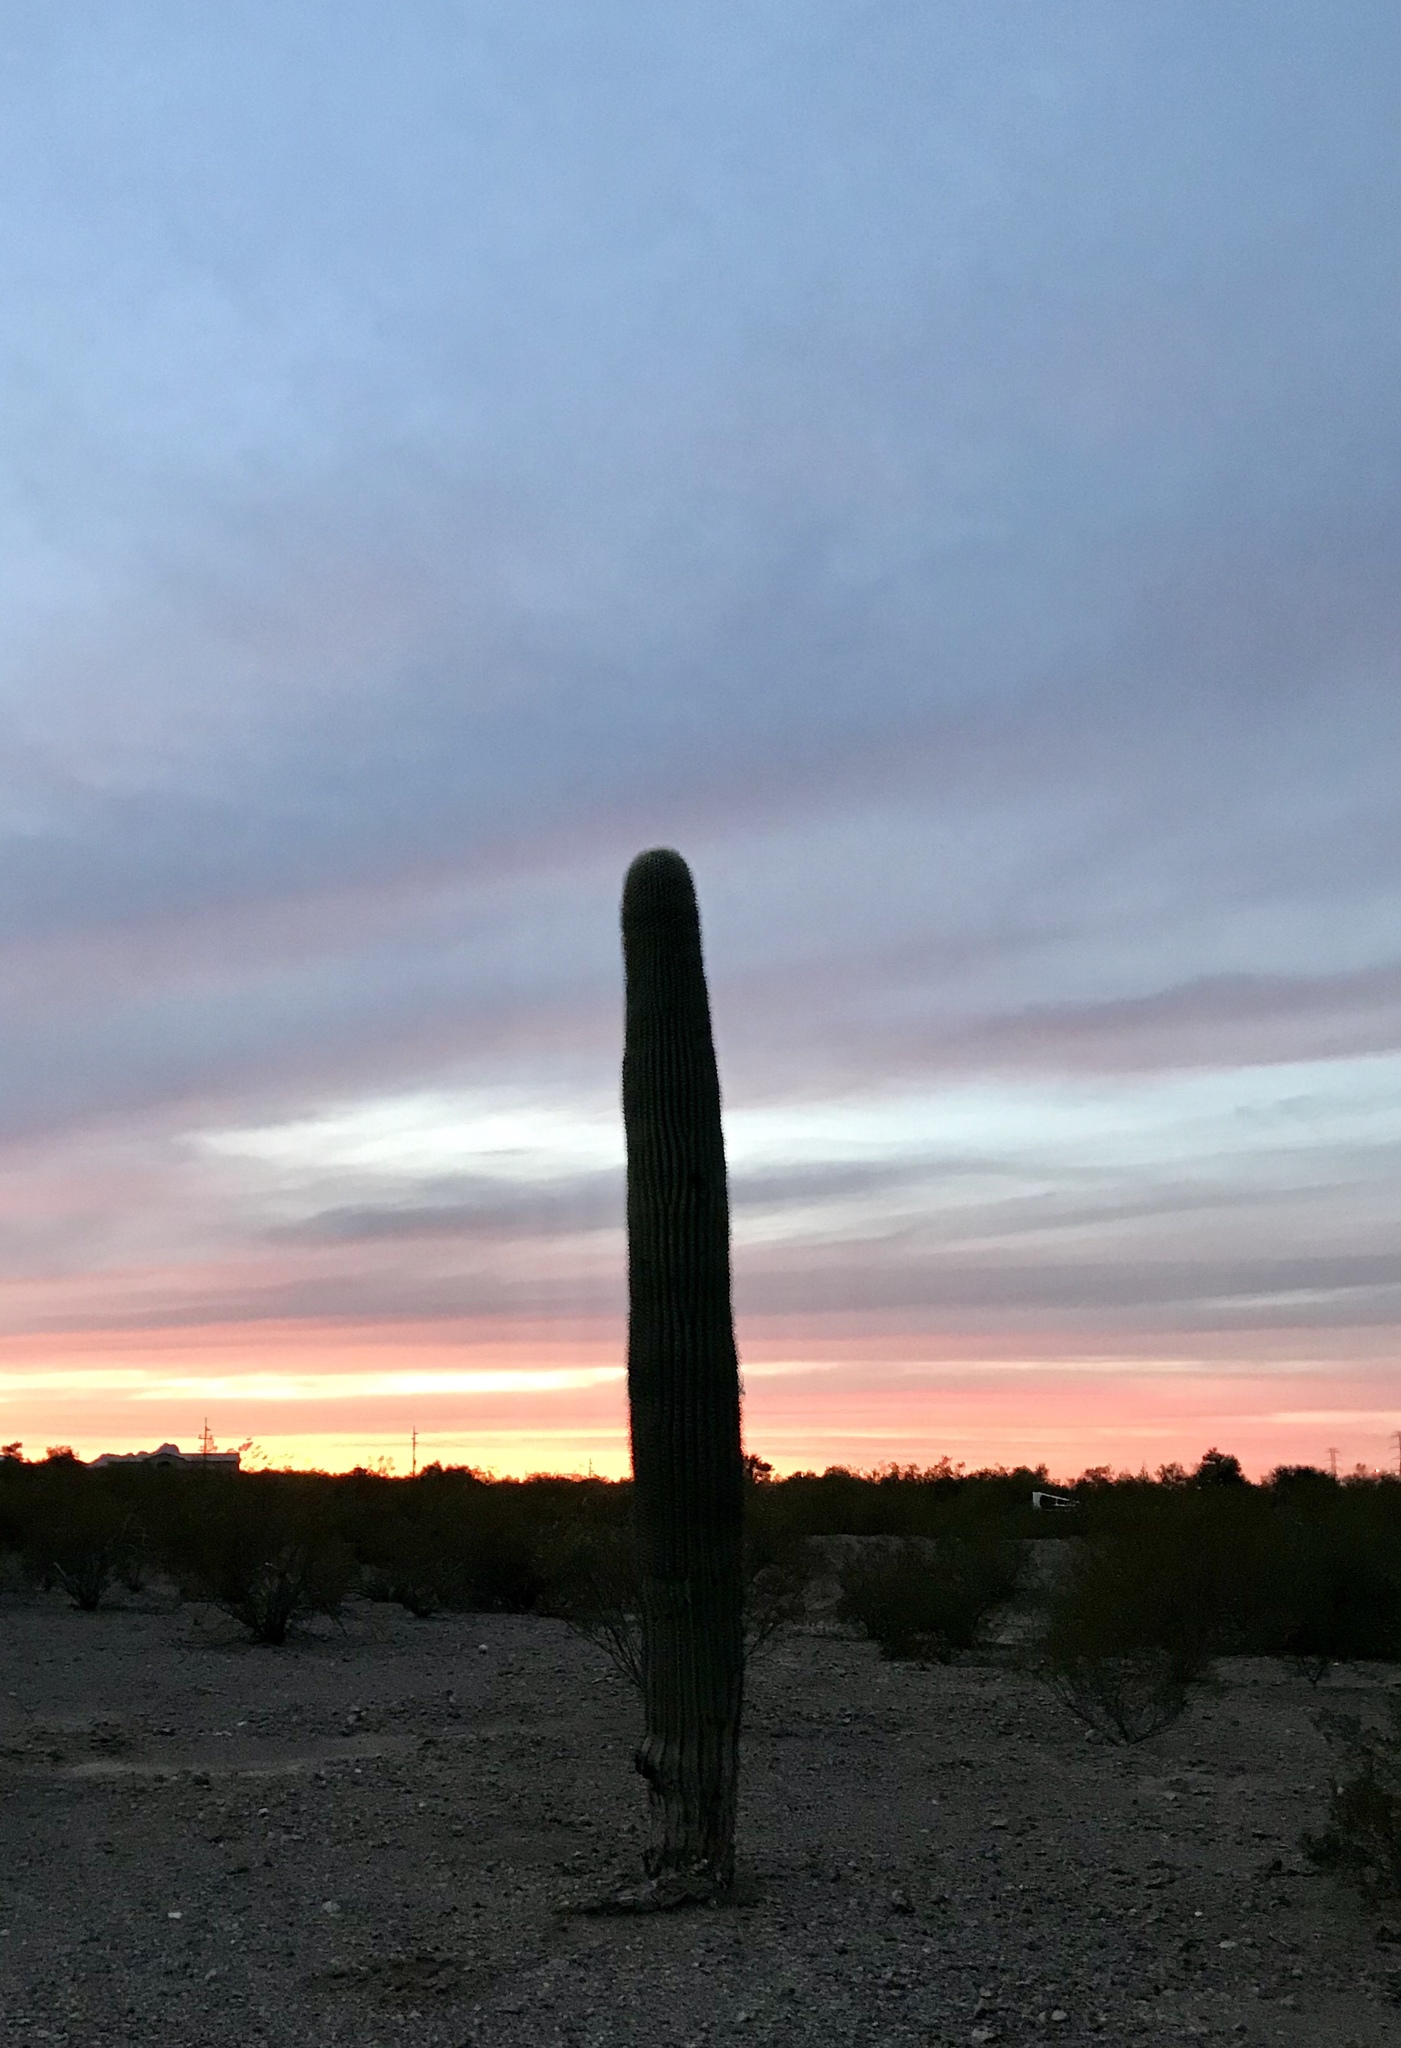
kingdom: Plantae
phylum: Tracheophyta
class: Magnoliopsida
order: Caryophyllales
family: Cactaceae
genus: Carnegiea
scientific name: Carnegiea gigantea
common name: Saguaro
